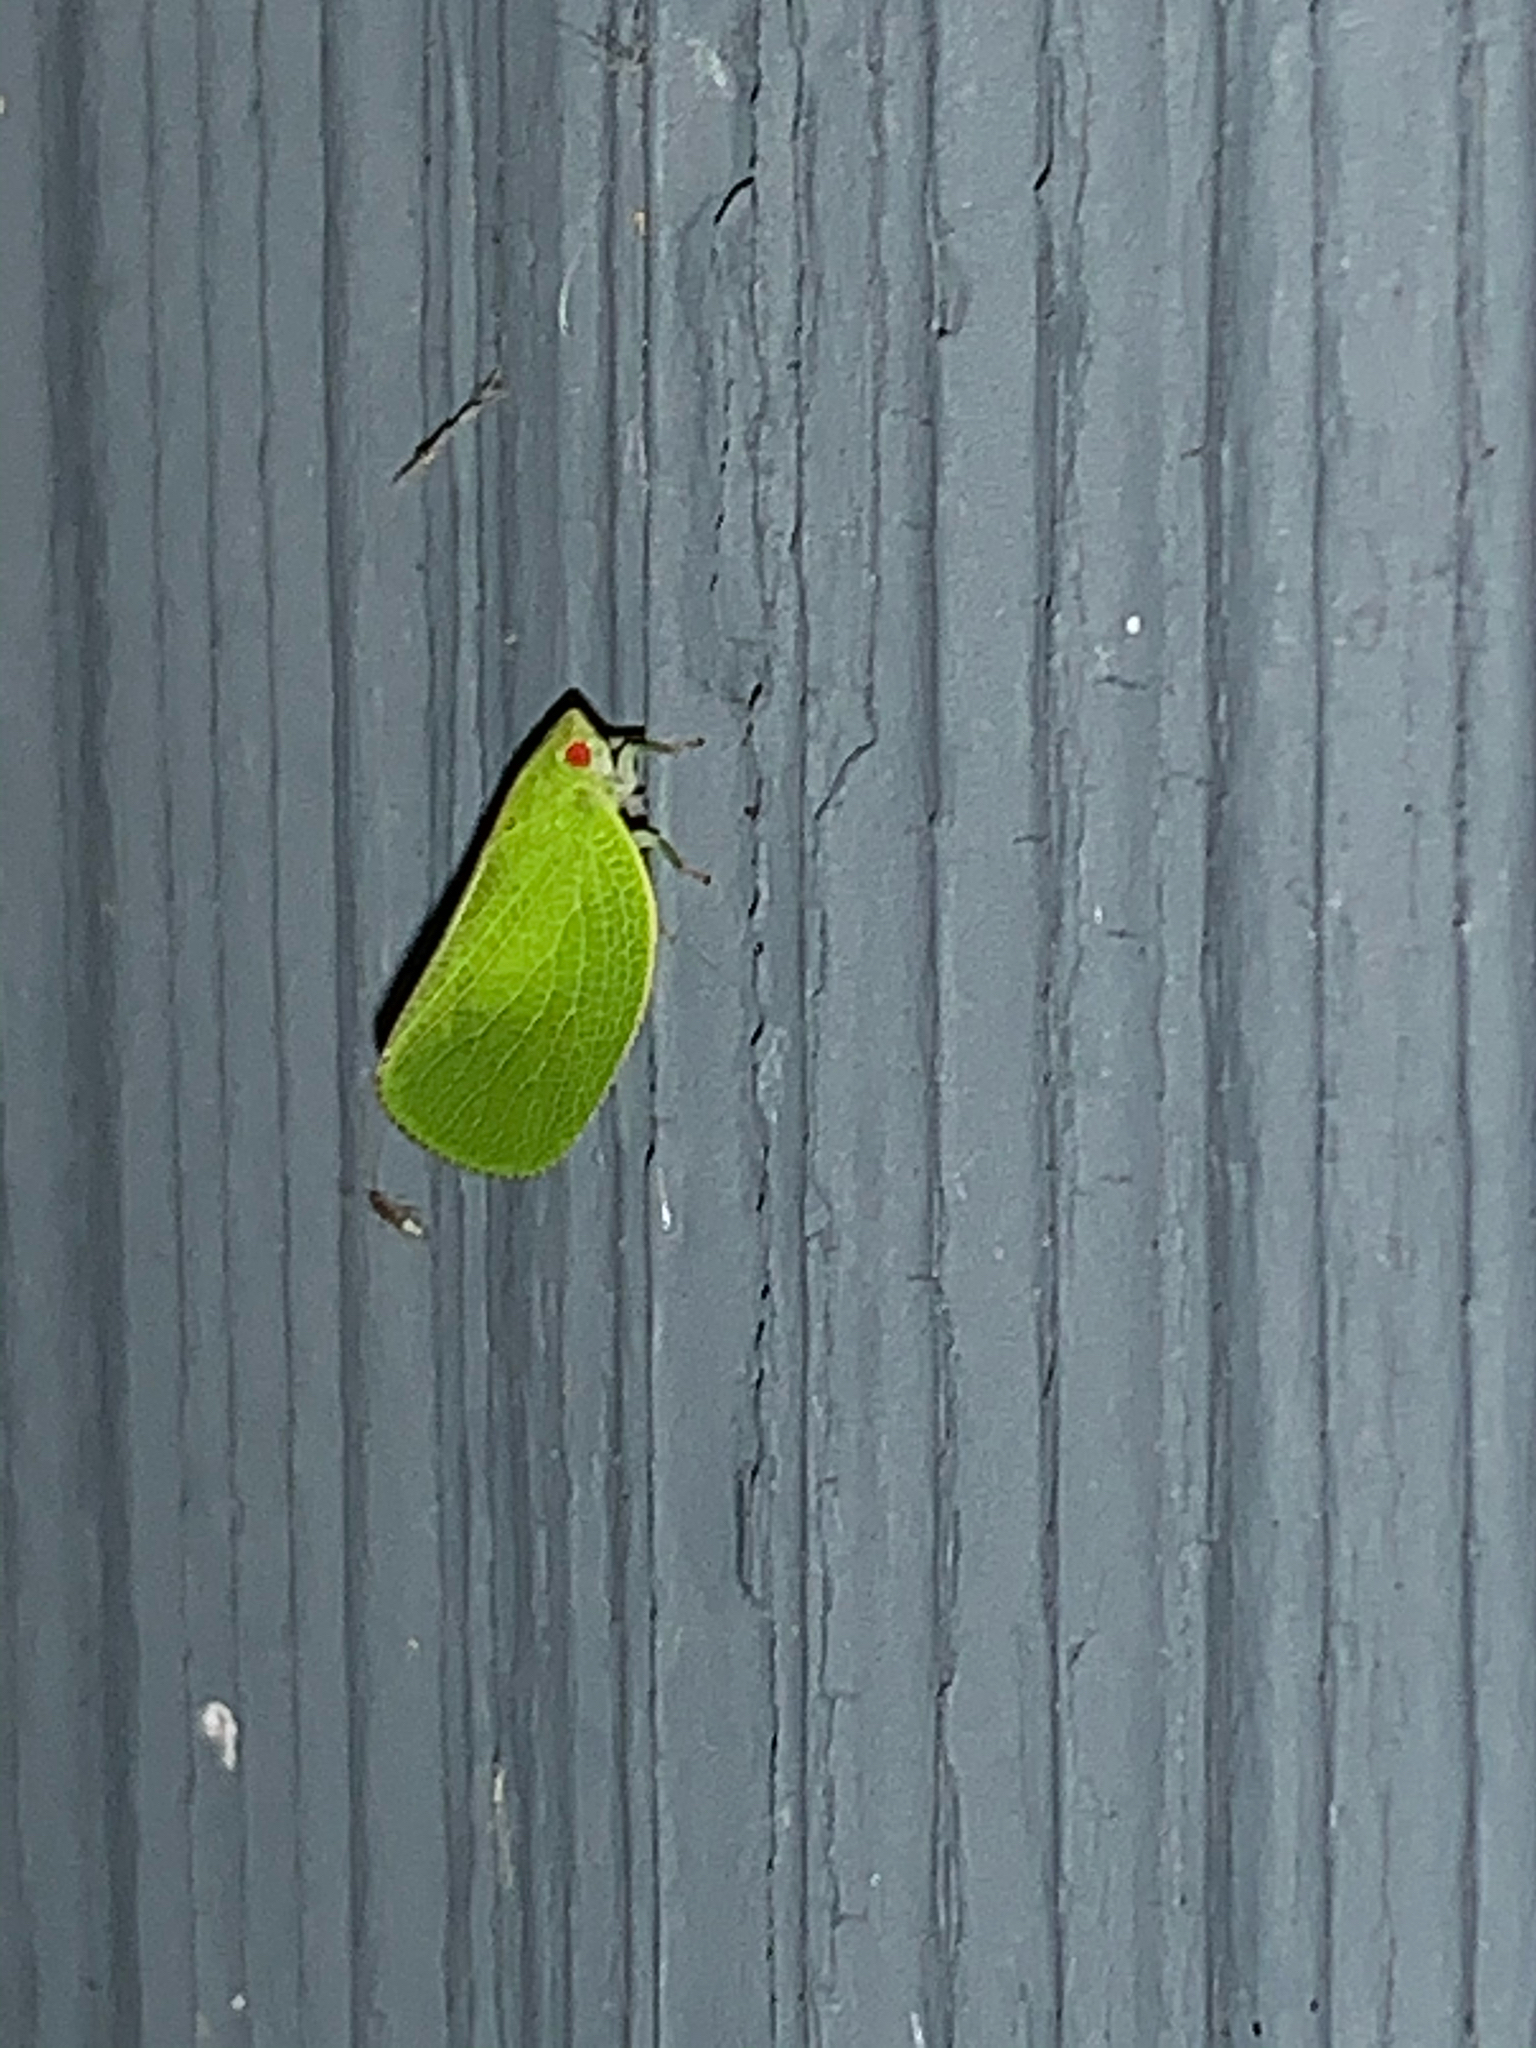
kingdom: Animalia
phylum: Arthropoda
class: Insecta
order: Hemiptera
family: Acanaloniidae
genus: Acanalonia
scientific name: Acanalonia conica
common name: Green cone-headed planthopper
